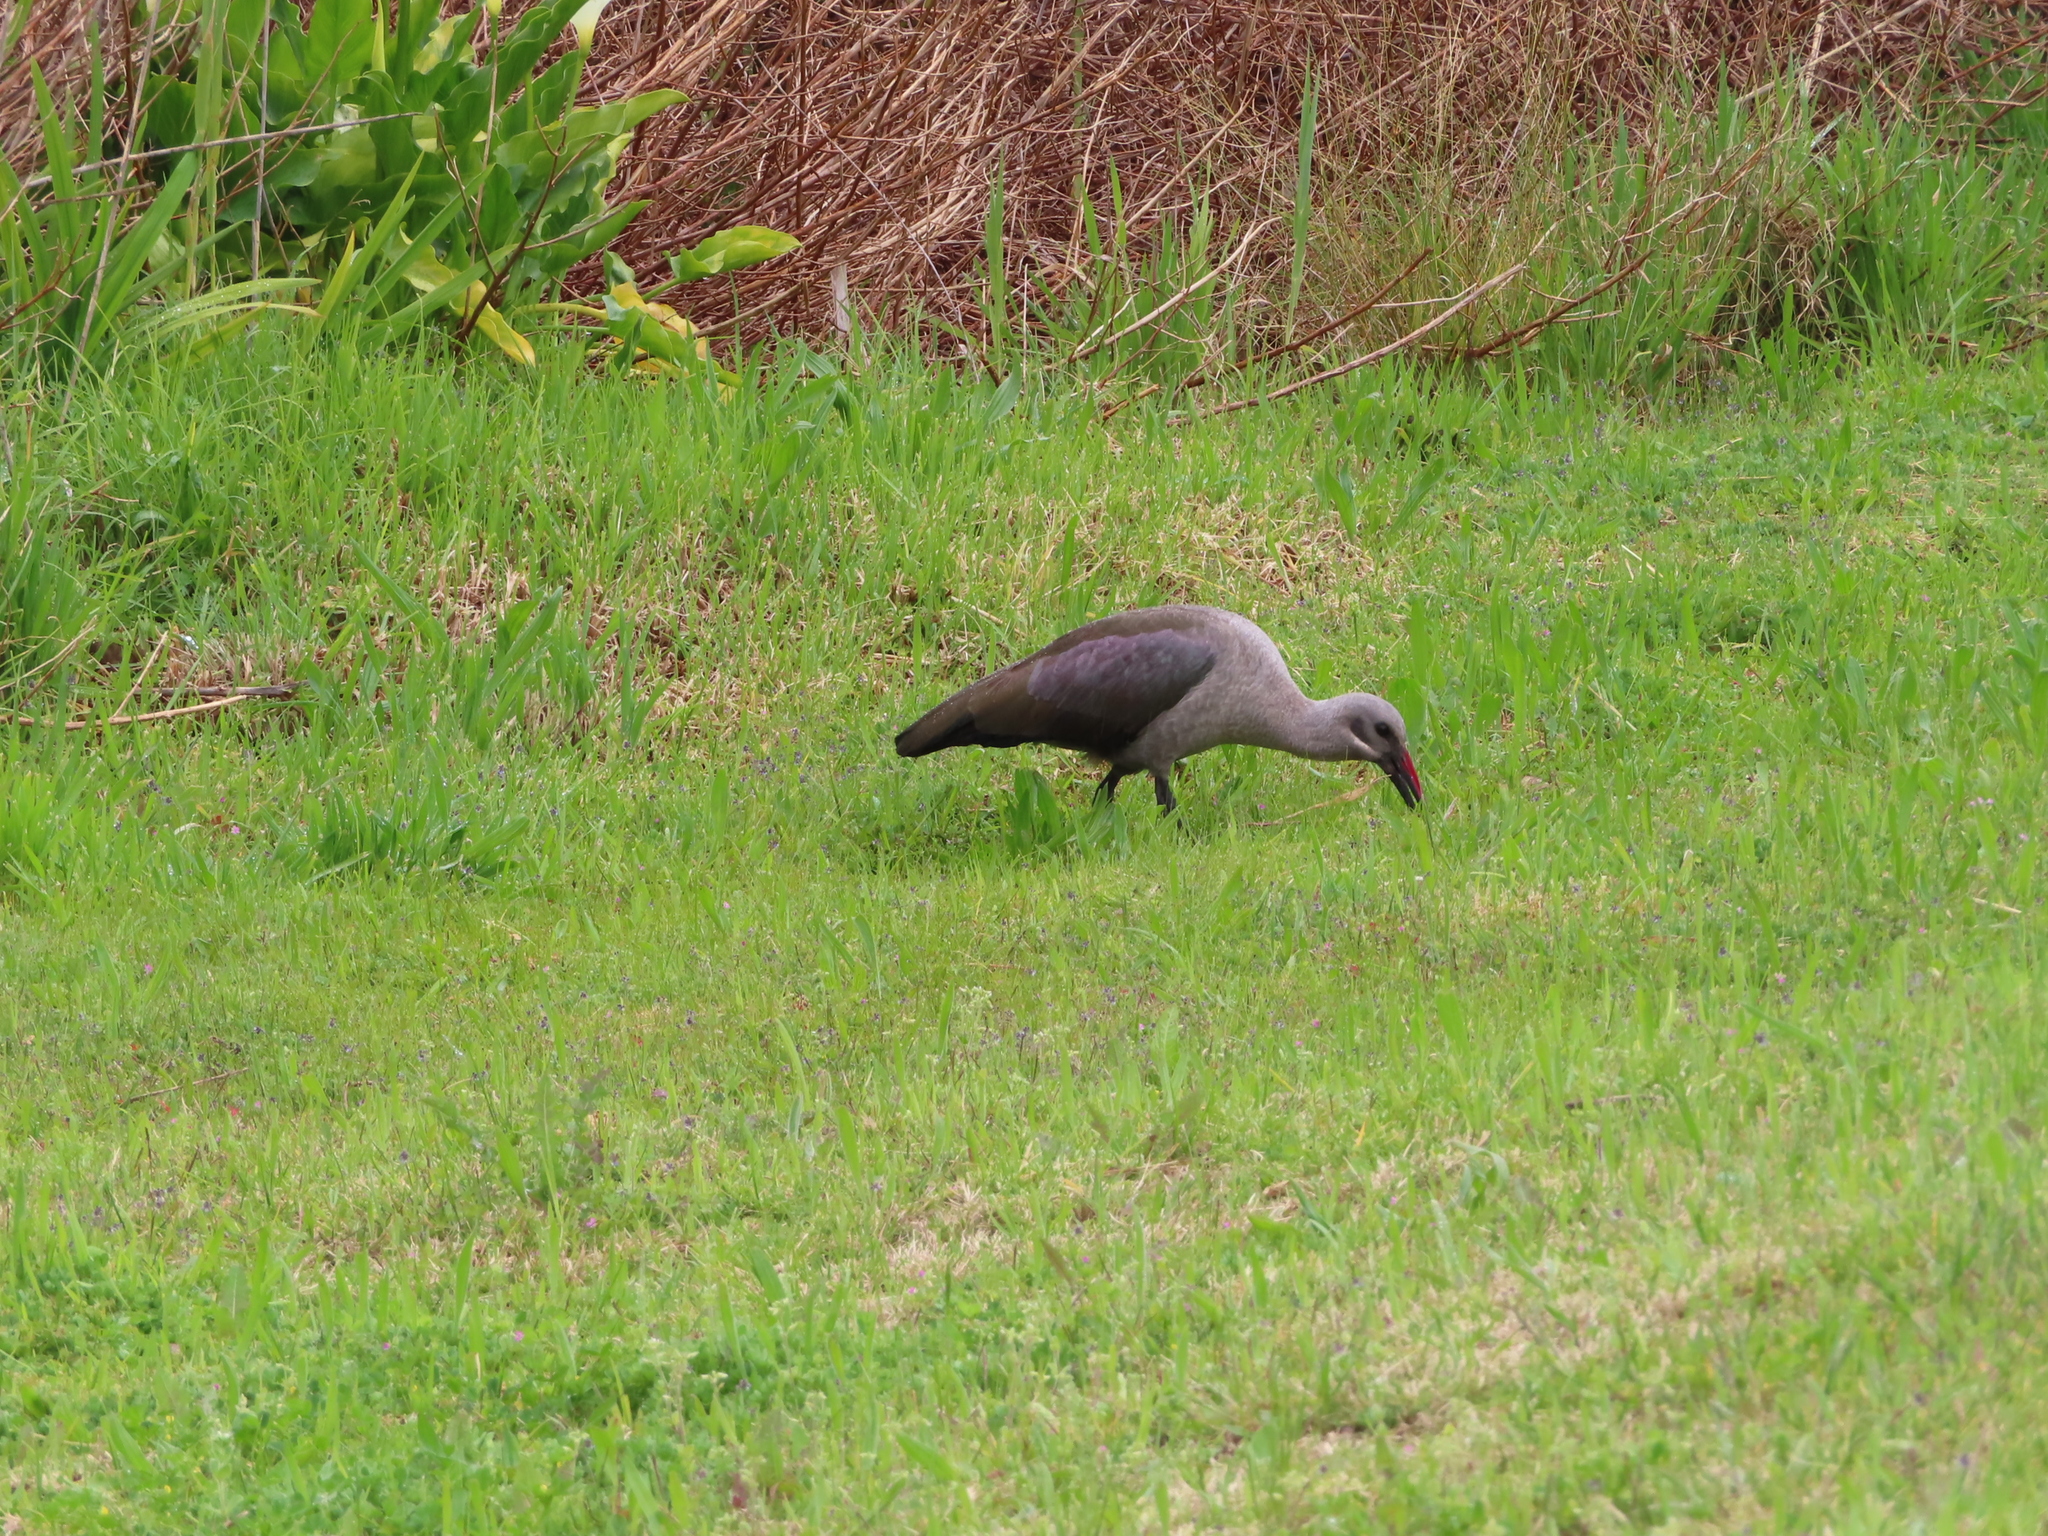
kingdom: Animalia
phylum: Chordata
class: Aves
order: Pelecaniformes
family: Threskiornithidae
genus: Bostrychia
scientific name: Bostrychia hagedash
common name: Hadada ibis
